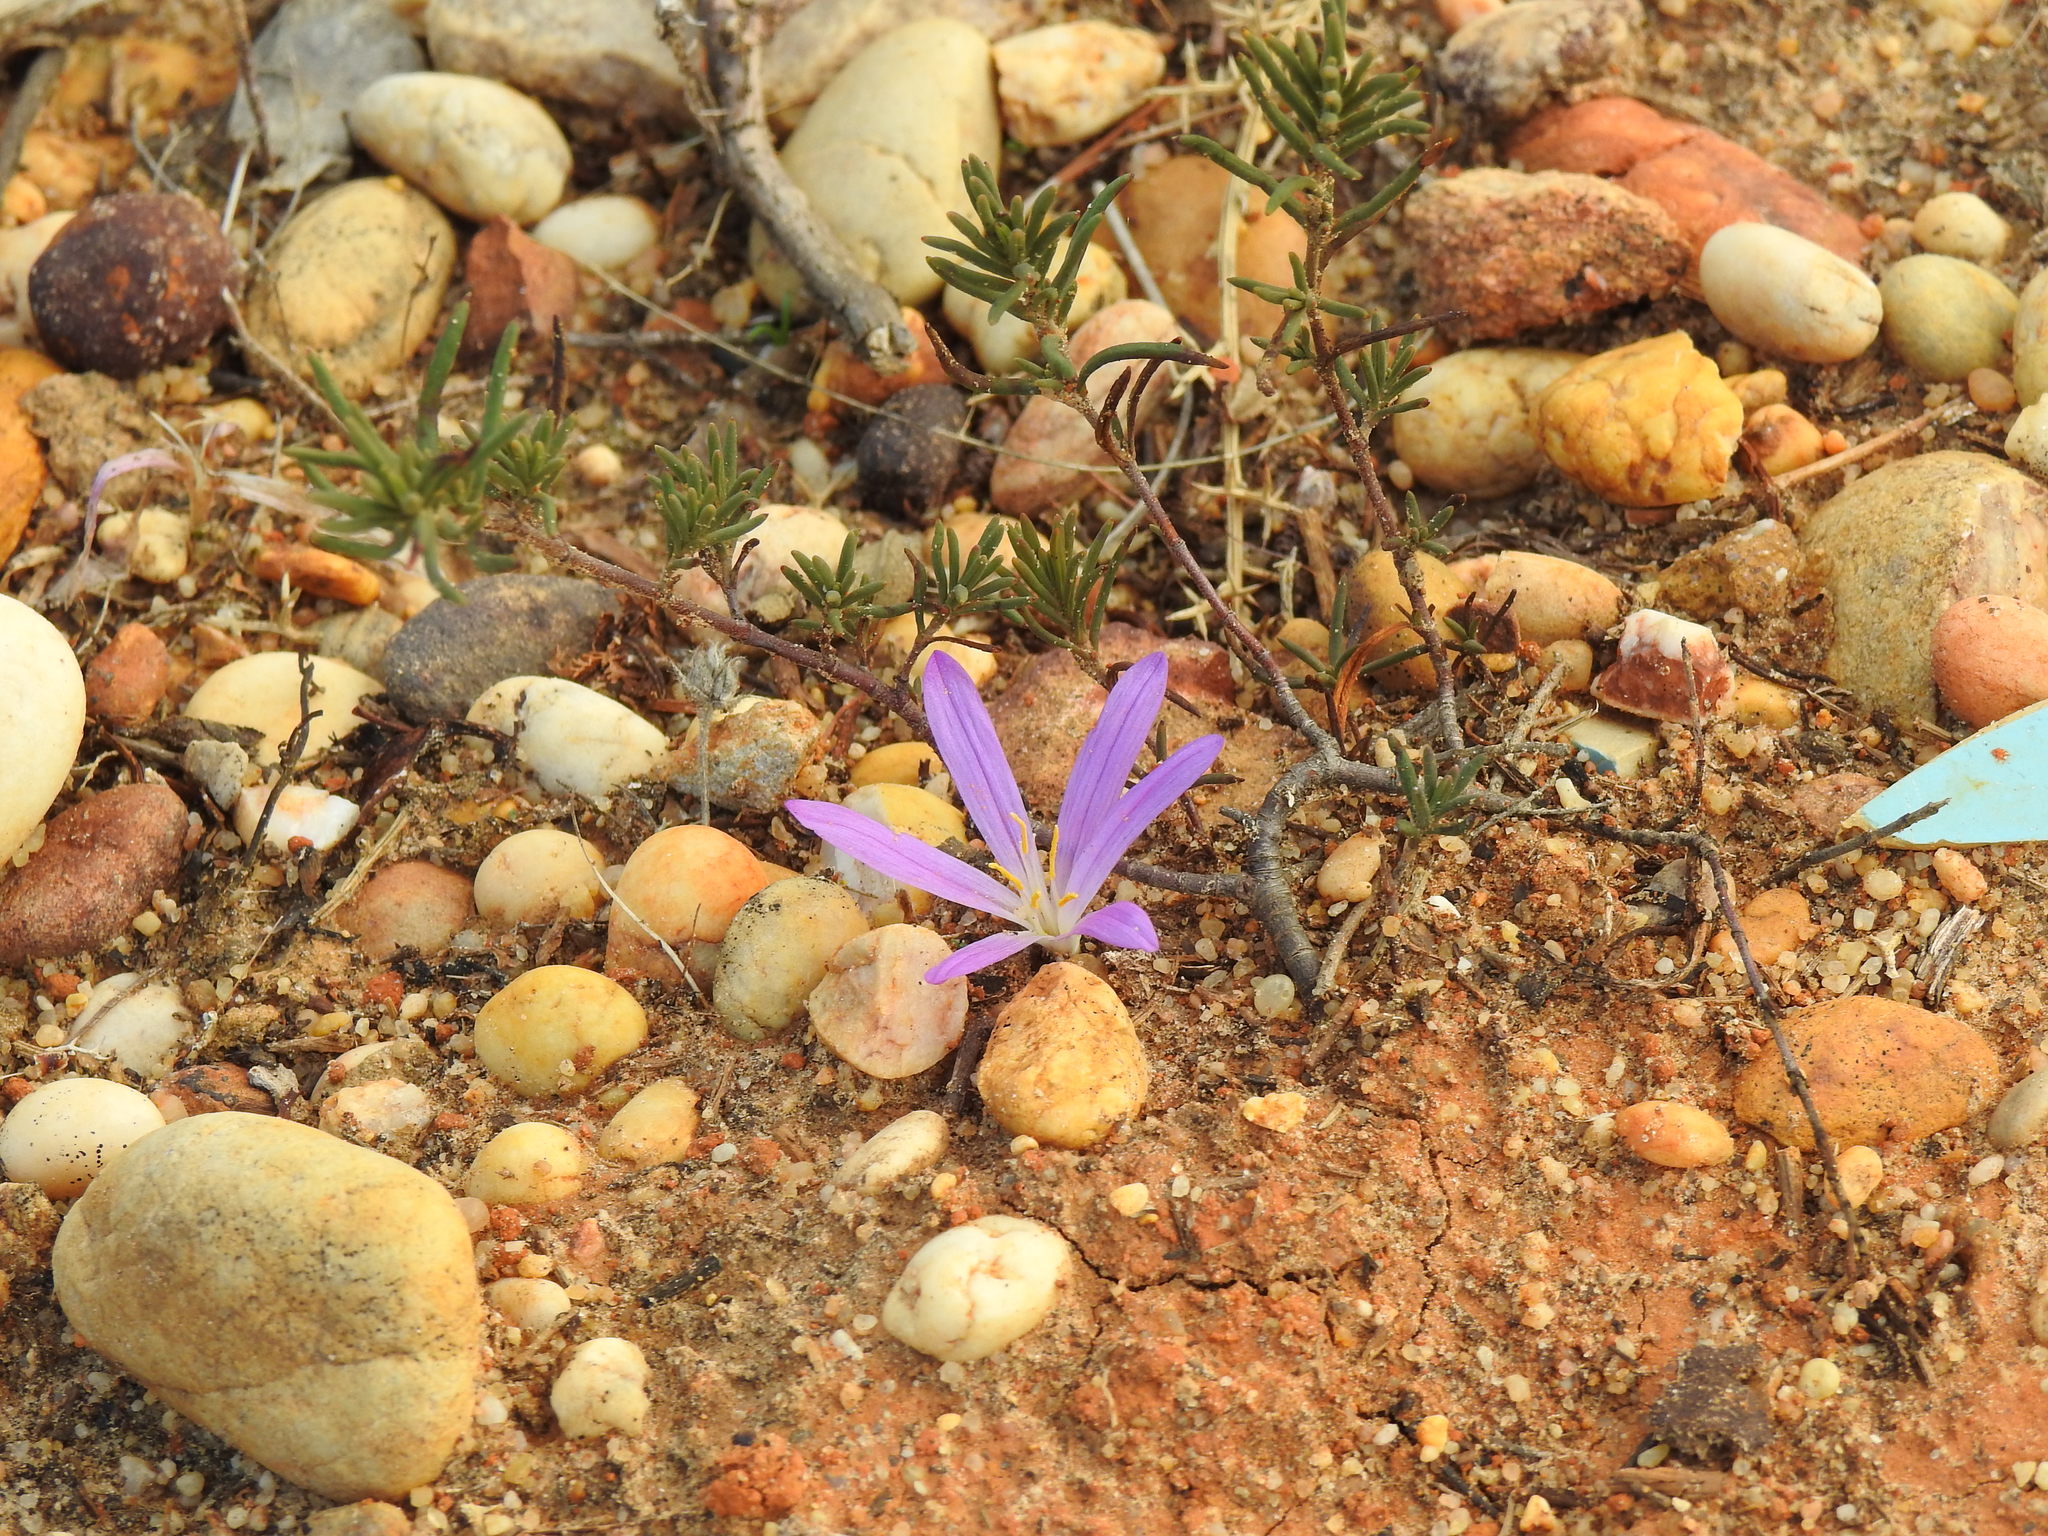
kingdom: Plantae
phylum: Tracheophyta
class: Liliopsida
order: Liliales
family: Colchicaceae
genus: Colchicum
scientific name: Colchicum filifolium
